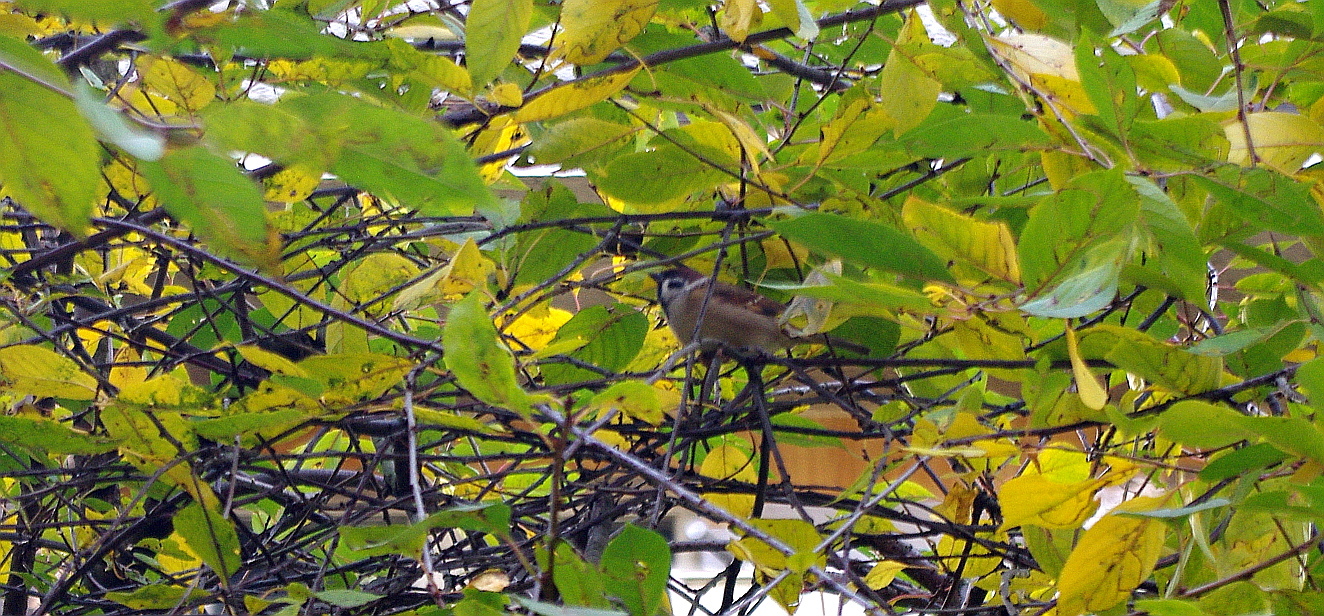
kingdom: Animalia
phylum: Chordata
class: Aves
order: Passeriformes
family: Passeridae
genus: Passer
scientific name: Passer montanus
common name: Eurasian tree sparrow
